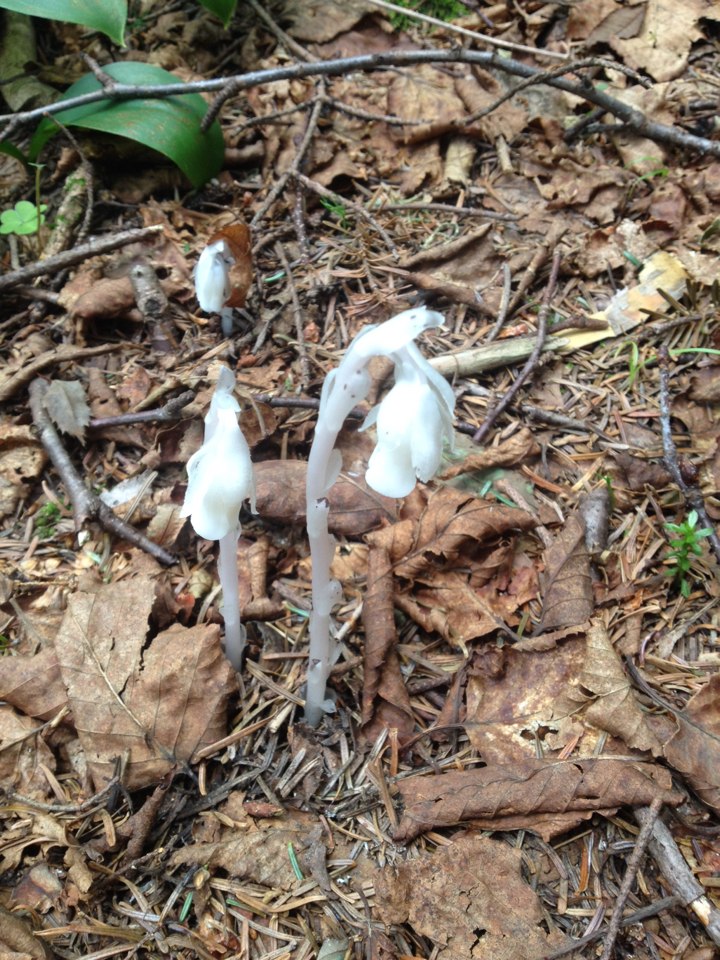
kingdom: Plantae
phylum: Tracheophyta
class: Magnoliopsida
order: Ericales
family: Ericaceae
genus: Monotropa
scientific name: Monotropa uniflora
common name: Convulsion root
